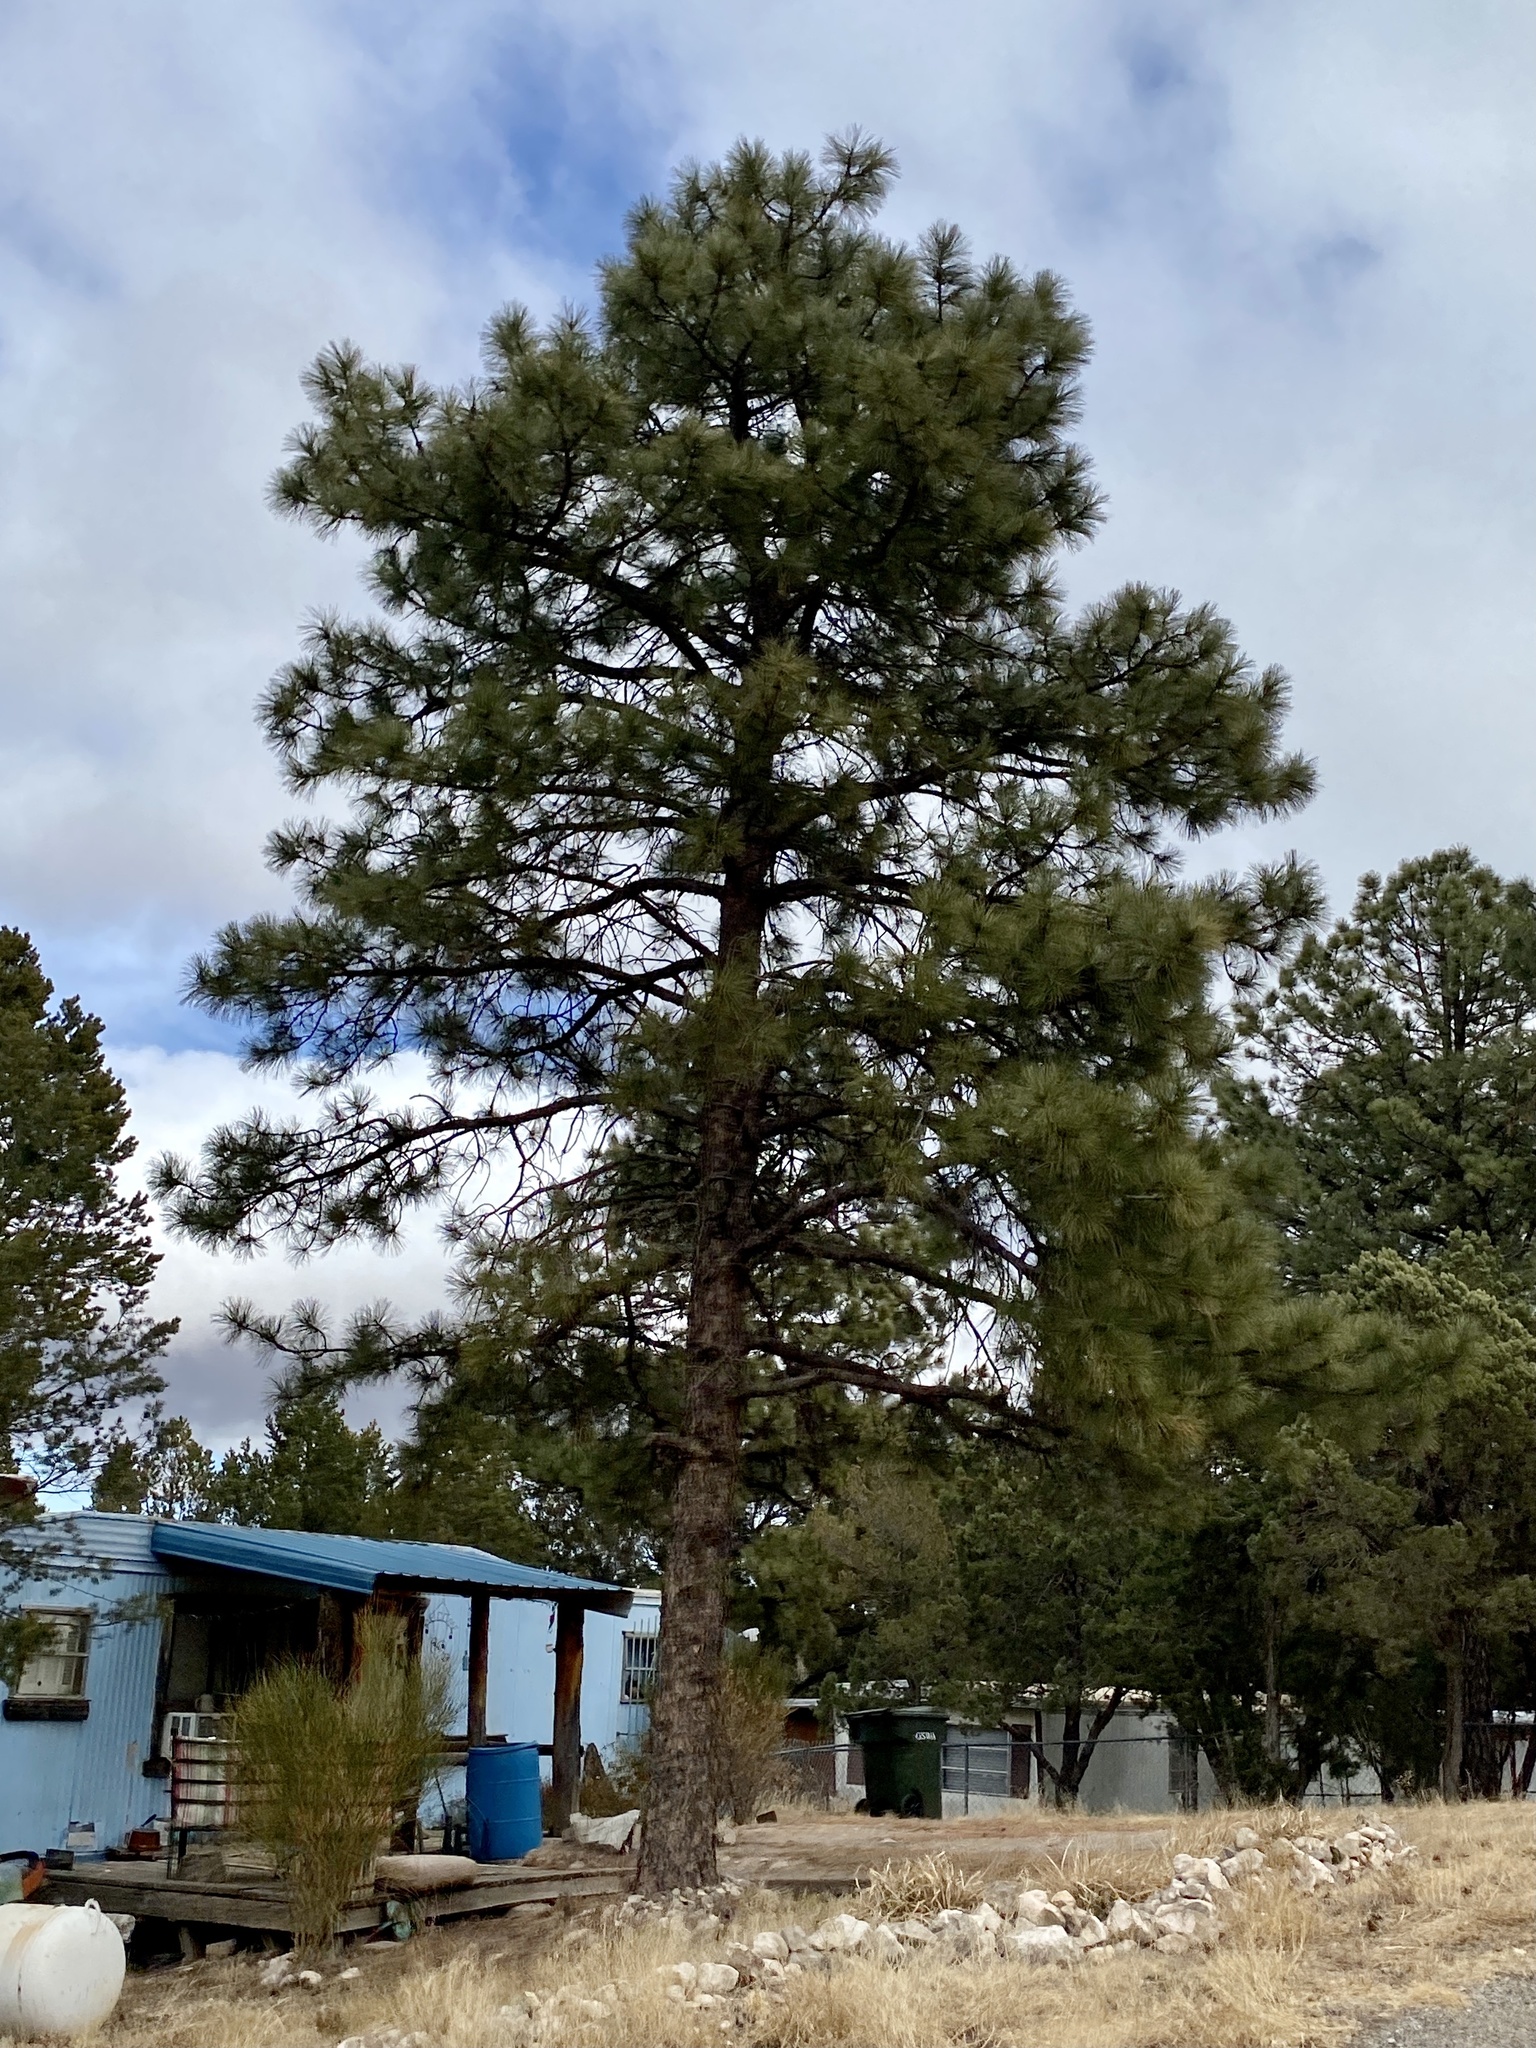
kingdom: Plantae
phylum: Tracheophyta
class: Pinopsida
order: Pinales
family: Pinaceae
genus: Pinus
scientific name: Pinus ponderosa
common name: Western yellow-pine
